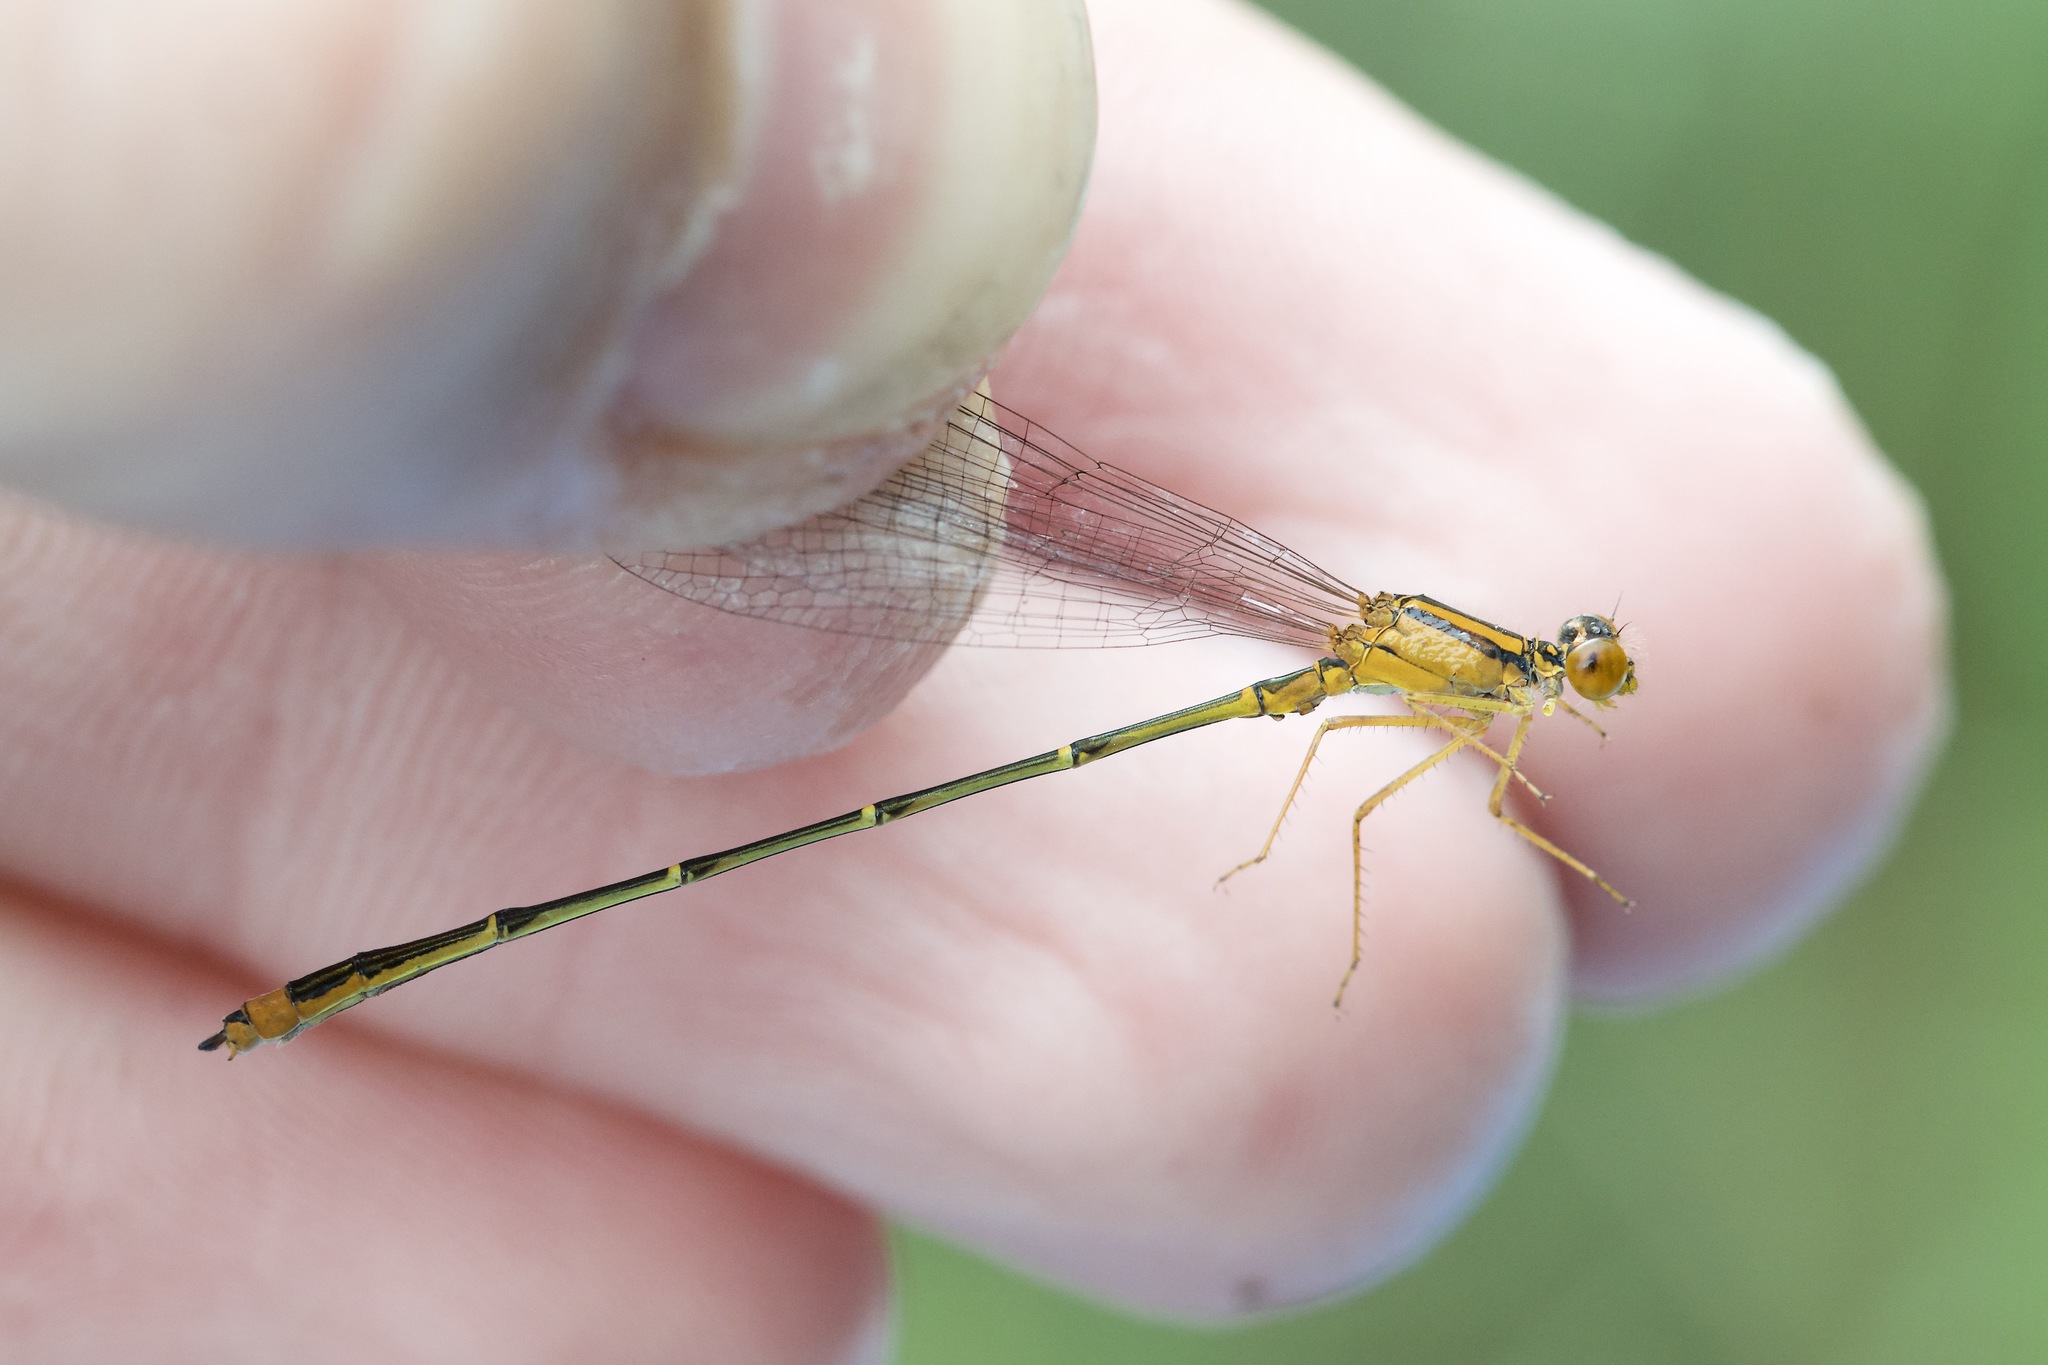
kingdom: Animalia
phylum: Arthropoda
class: Insecta
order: Odonata
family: Coenagrionidae
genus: Enallagma
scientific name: Enallagma signatum
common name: Orange bluet
